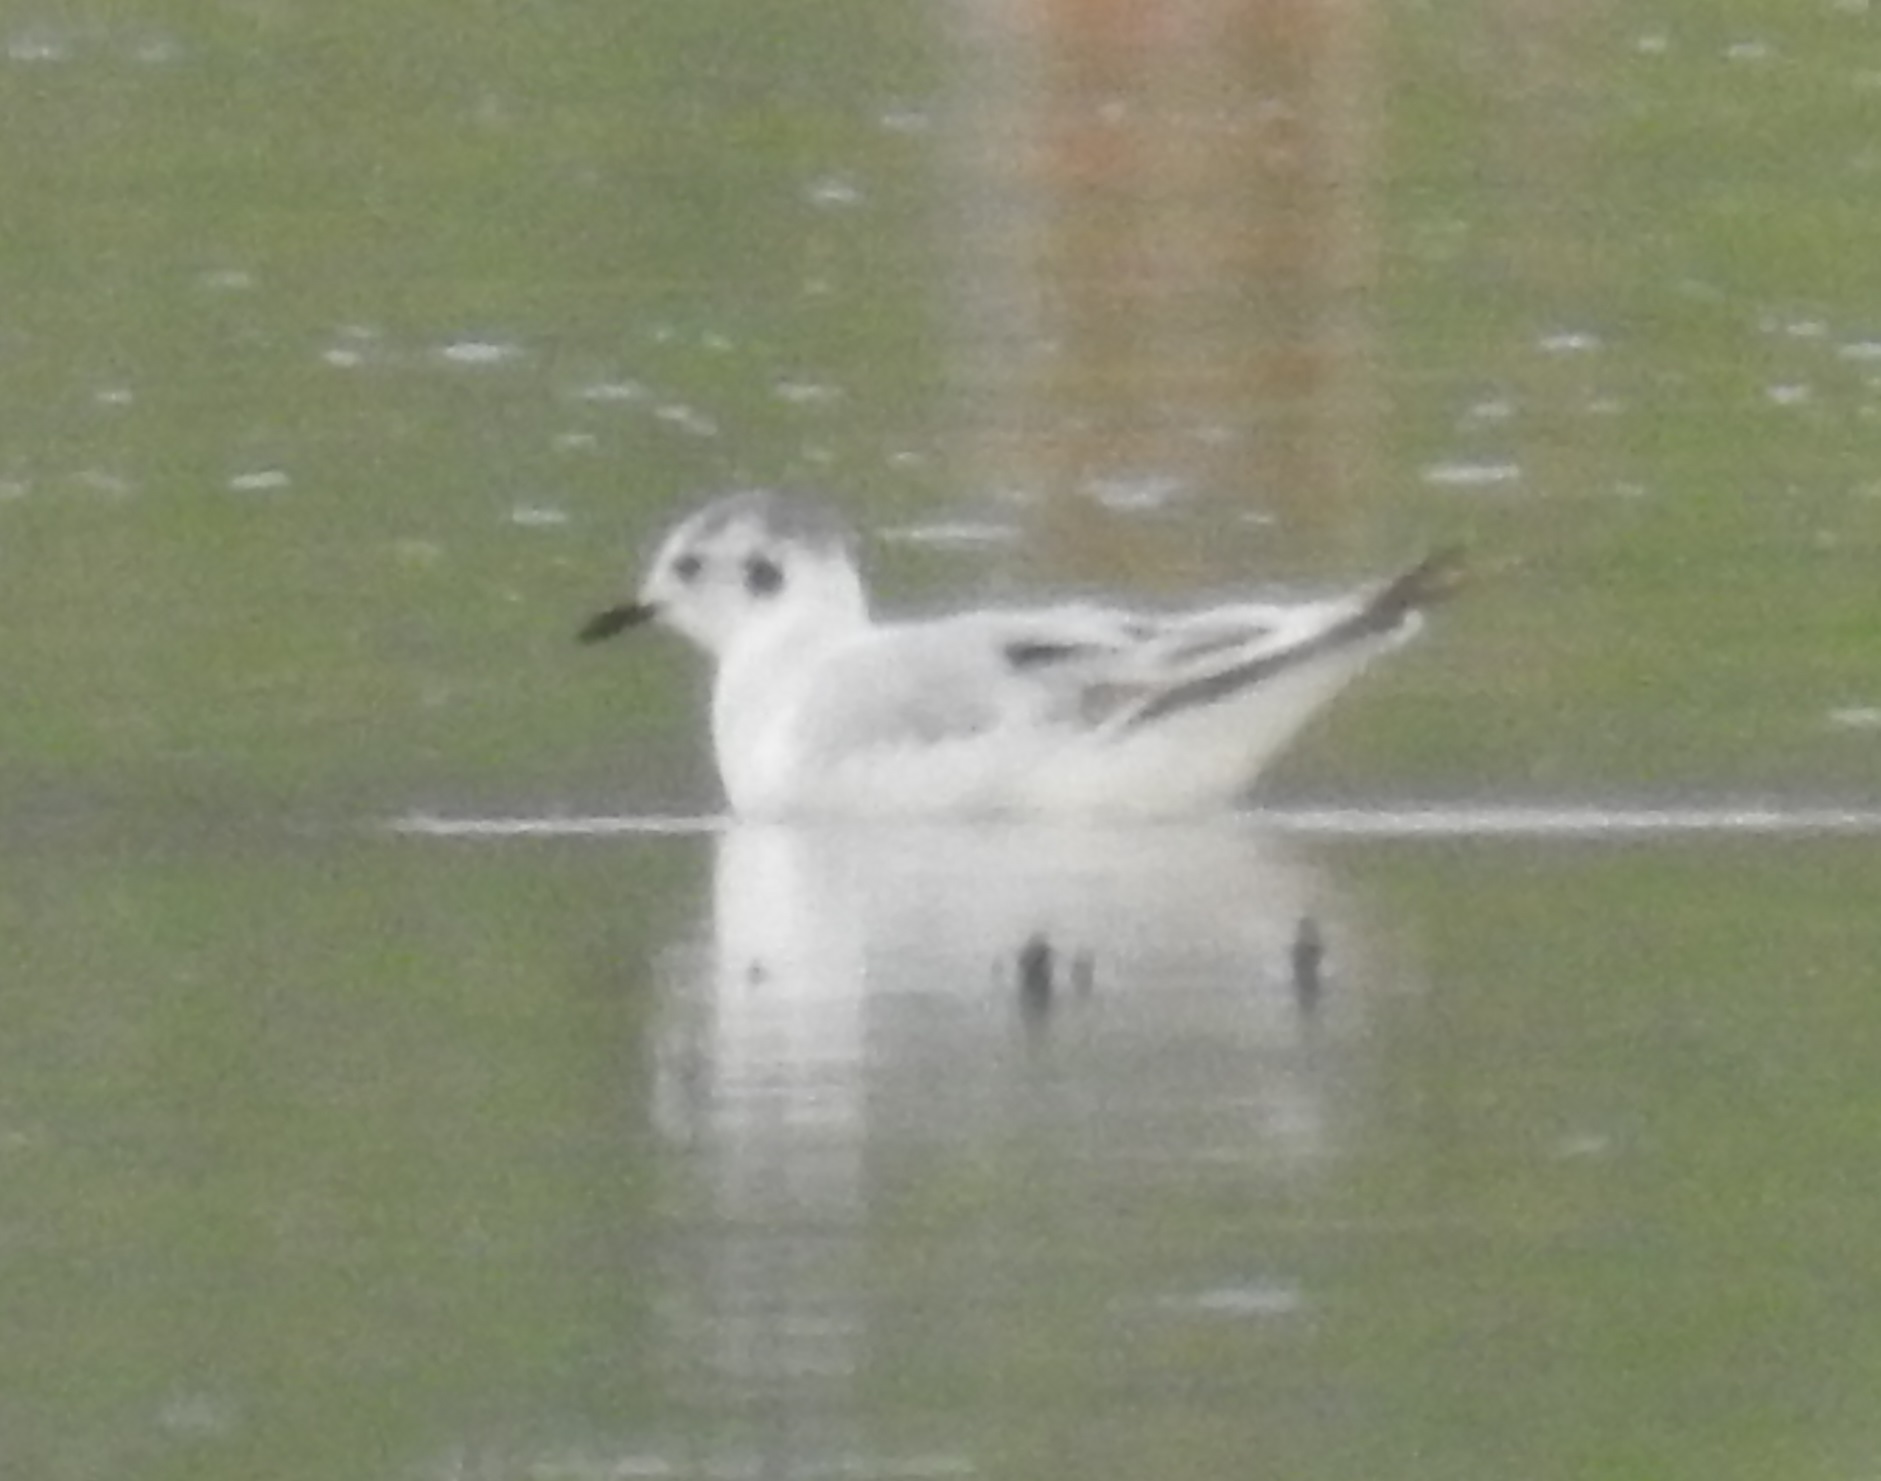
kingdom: Animalia
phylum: Chordata
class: Aves
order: Charadriiformes
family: Laridae
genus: Hydrocoloeus
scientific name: Hydrocoloeus minutus
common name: Little gull
